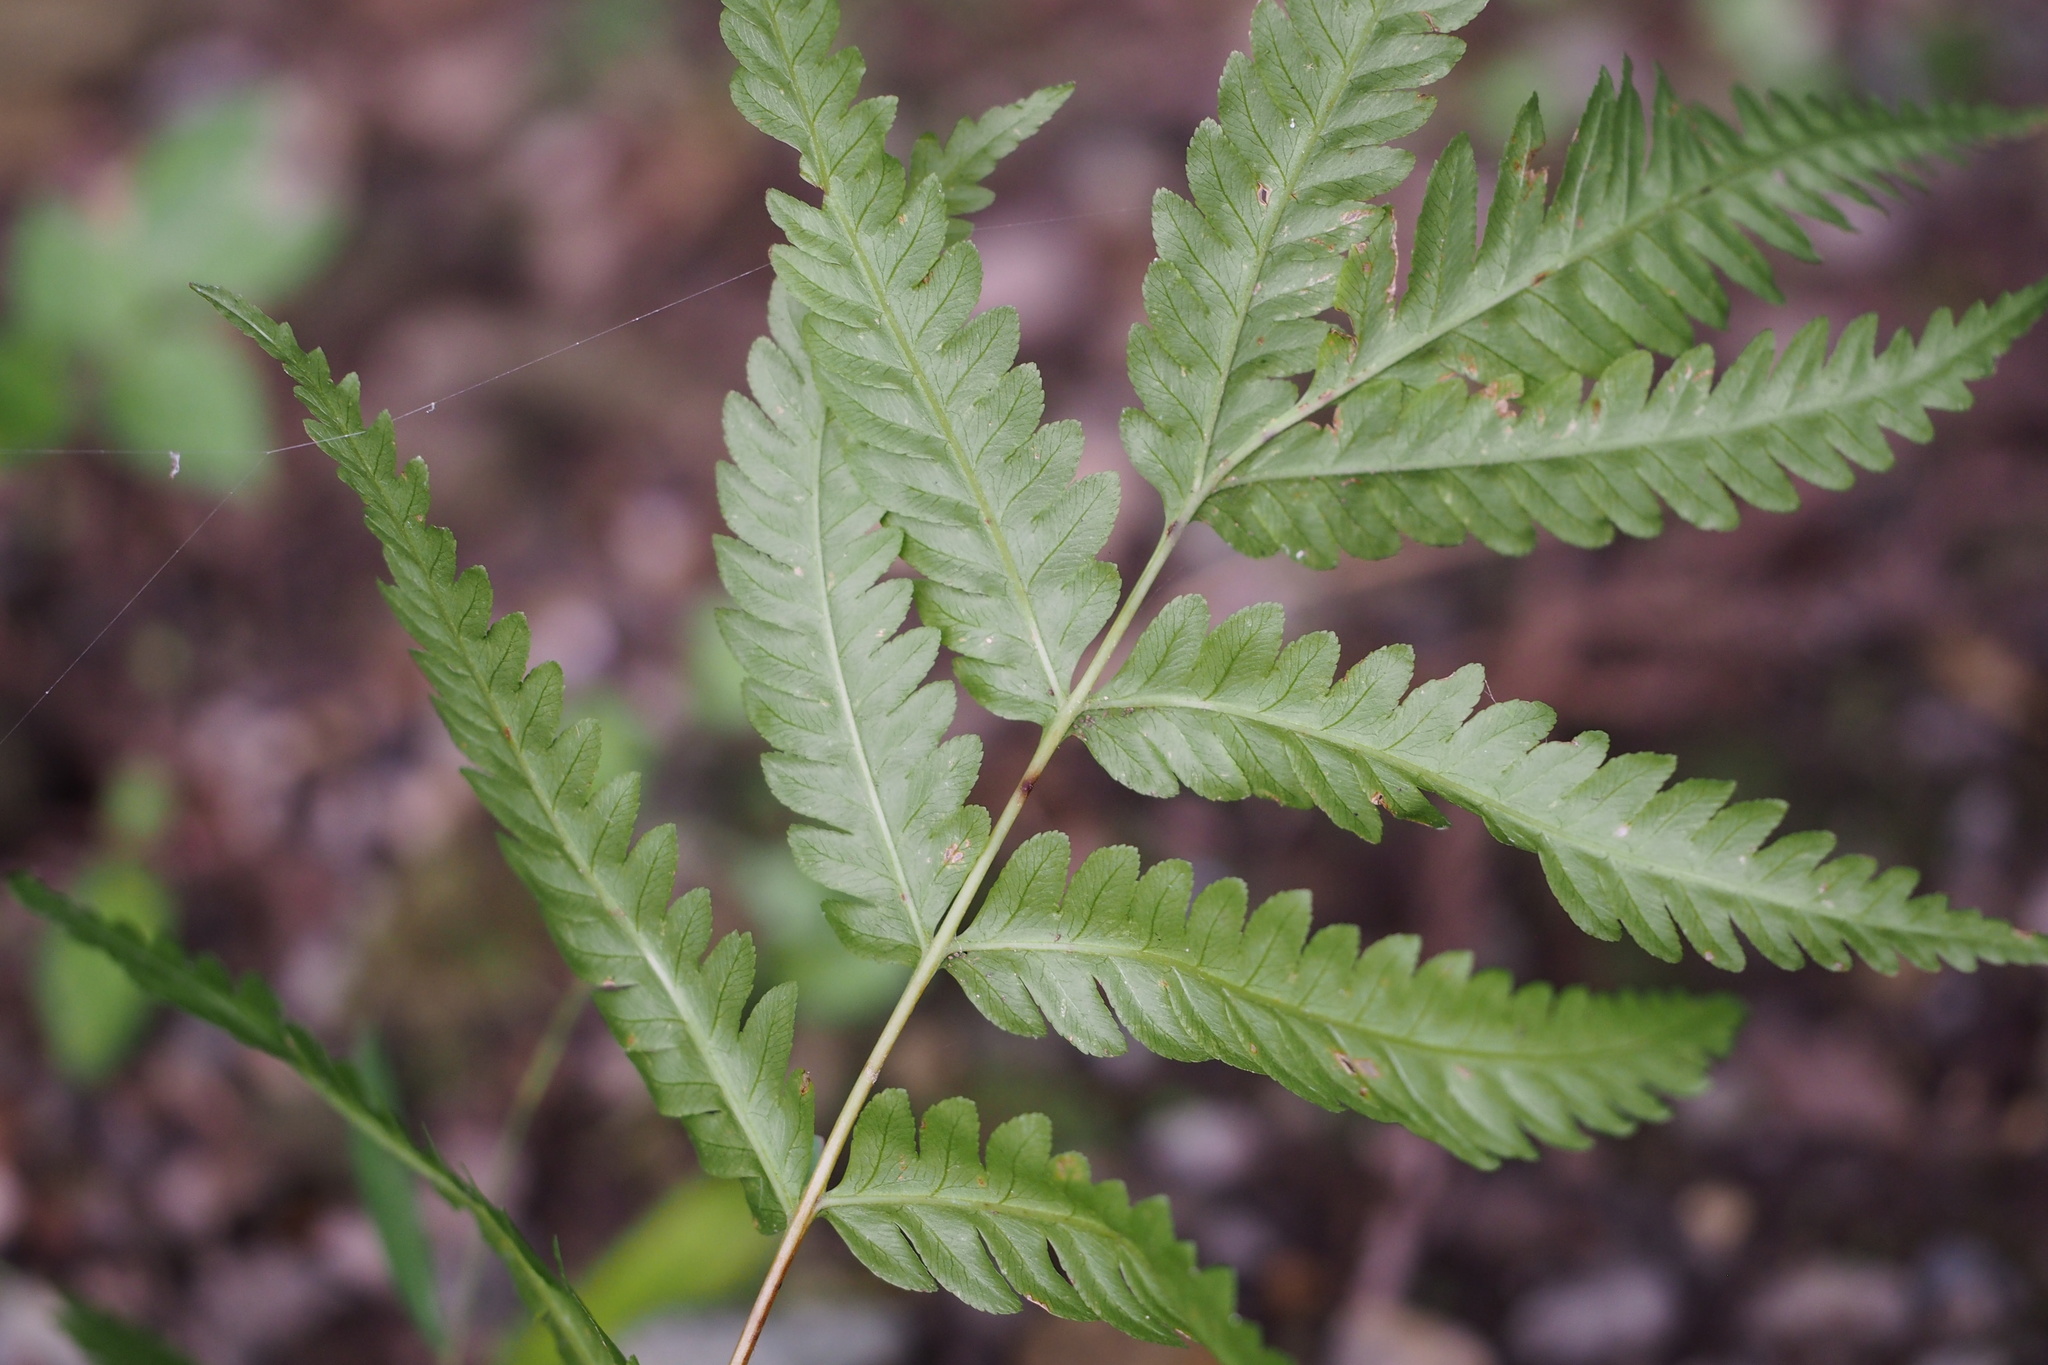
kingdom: Plantae
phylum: Tracheophyta
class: Polypodiopsida
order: Polypodiales
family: Pteridaceae
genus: Pteris
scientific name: Pteris wallichiana
